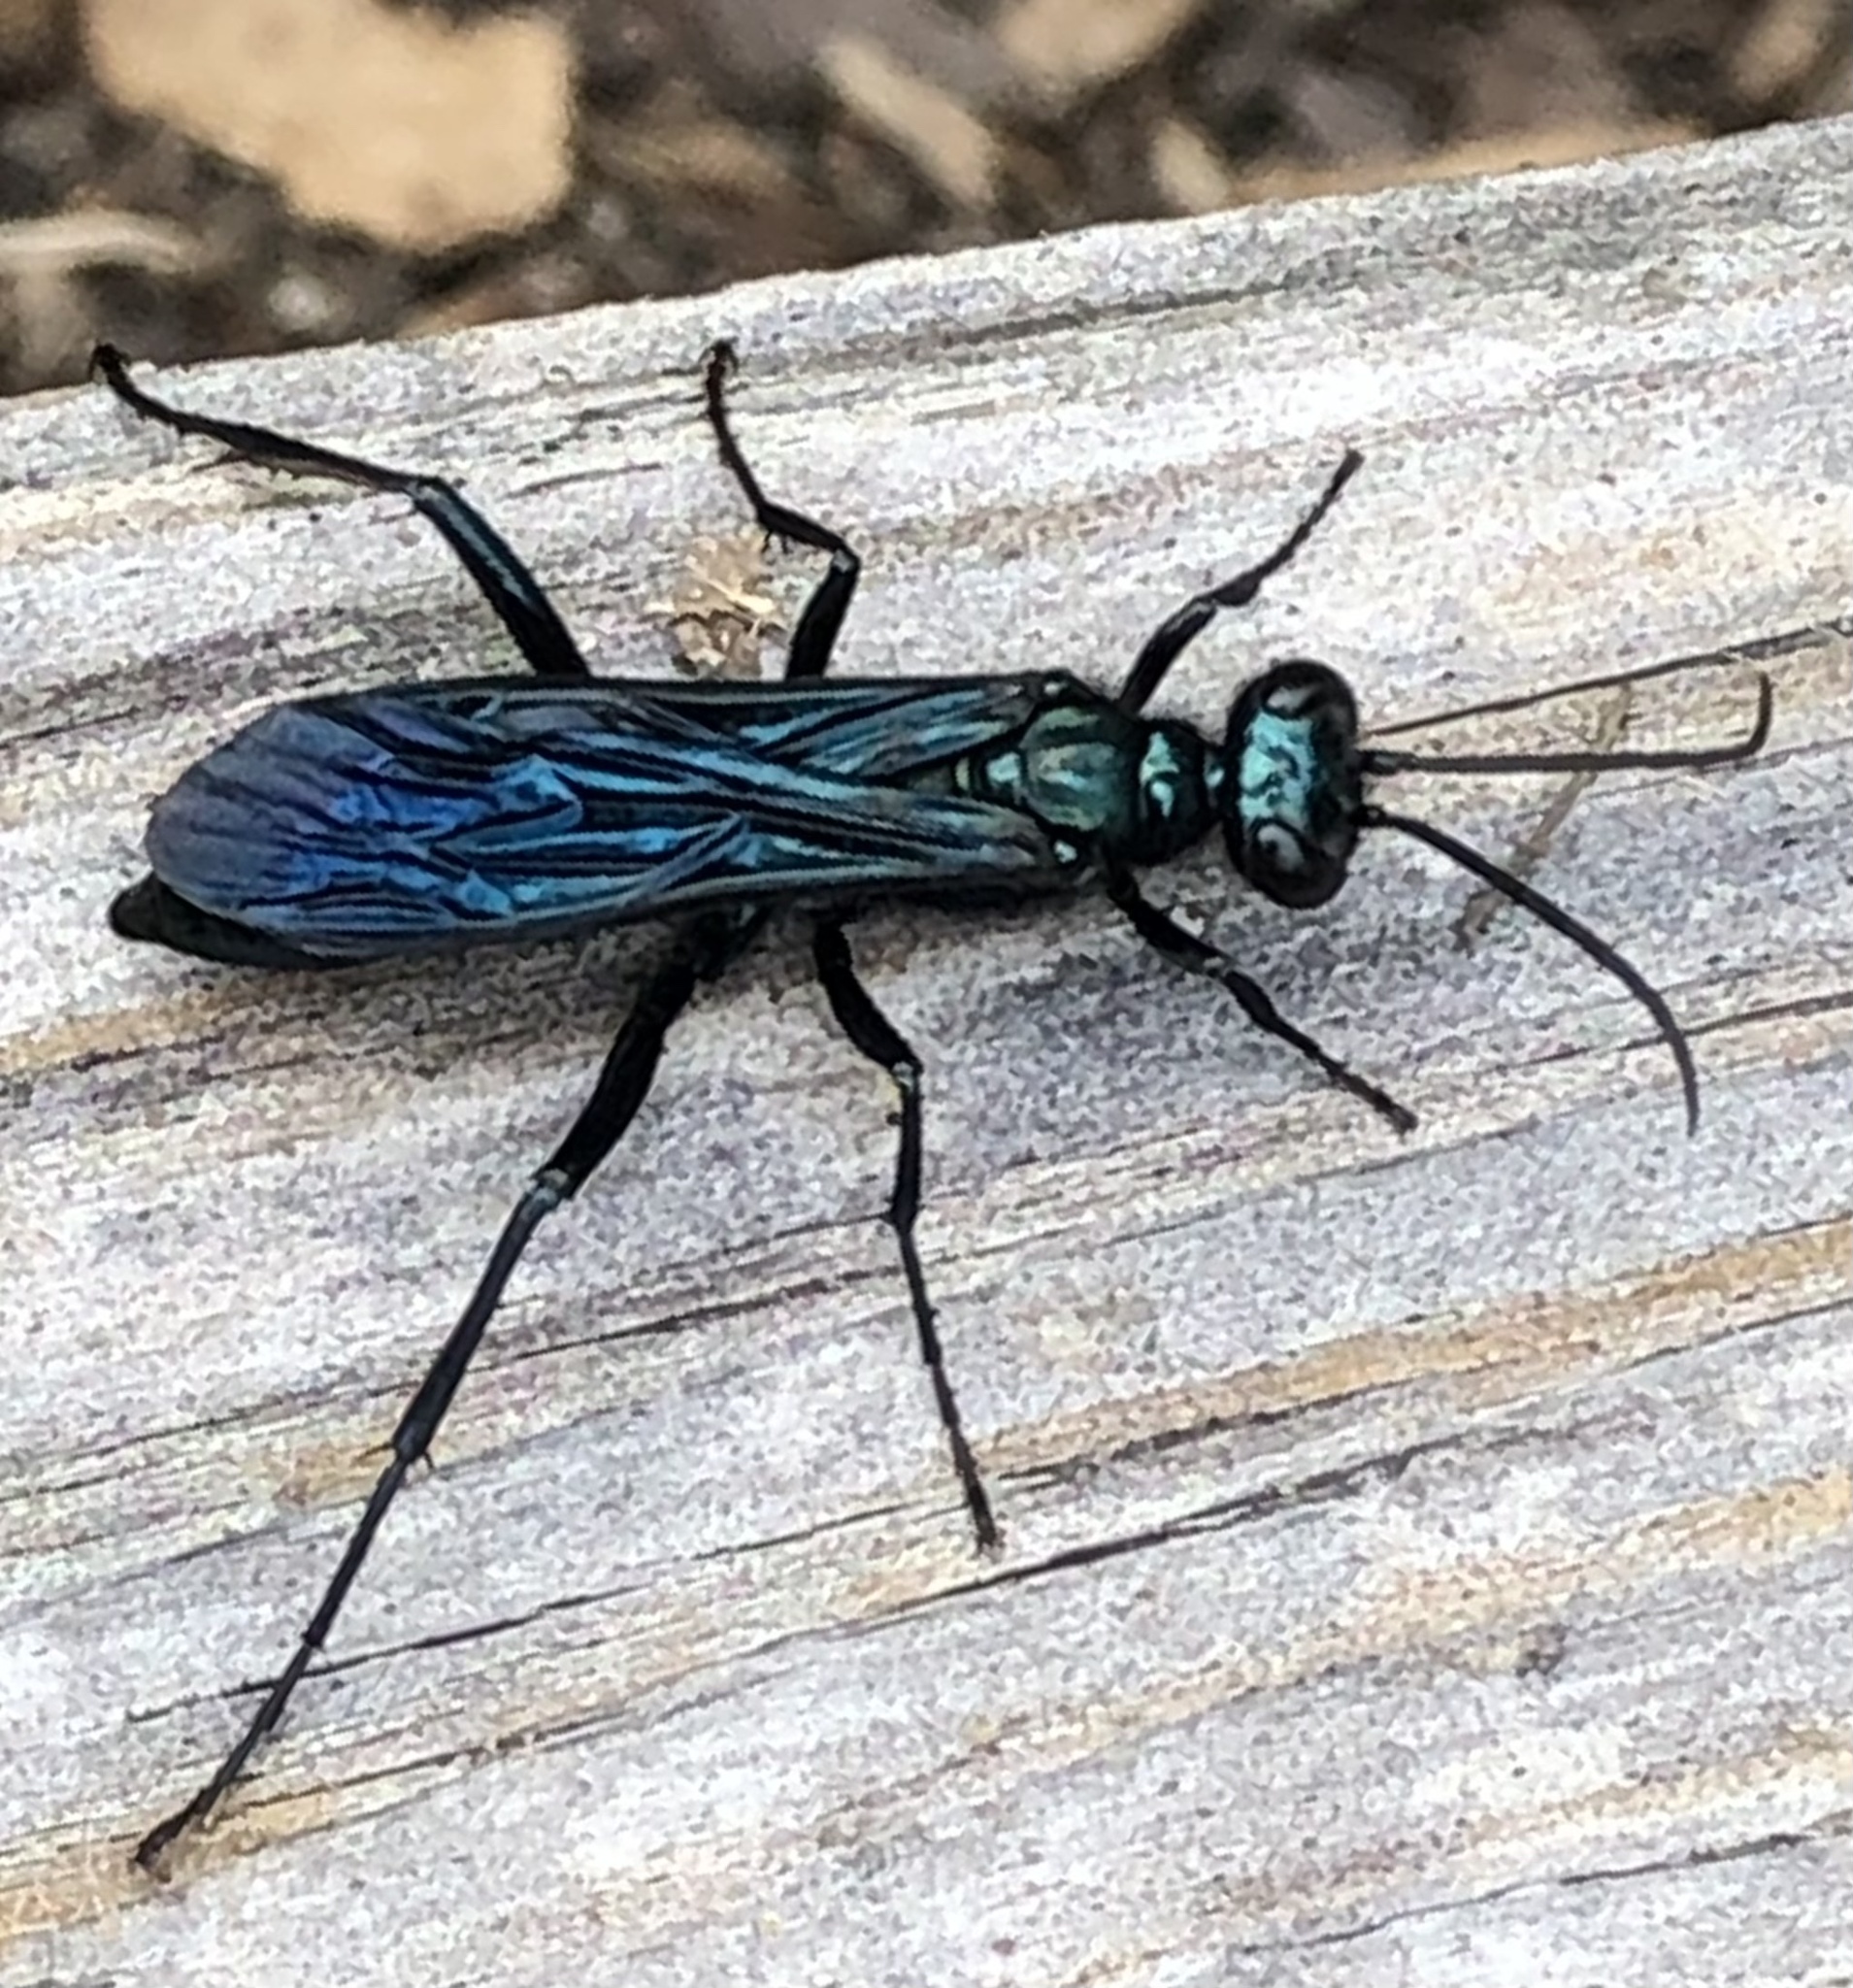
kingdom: Animalia
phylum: Arthropoda
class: Insecta
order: Hymenoptera
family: Sphecidae
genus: Chalybion
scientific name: Chalybion californicum
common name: Mud dauber
